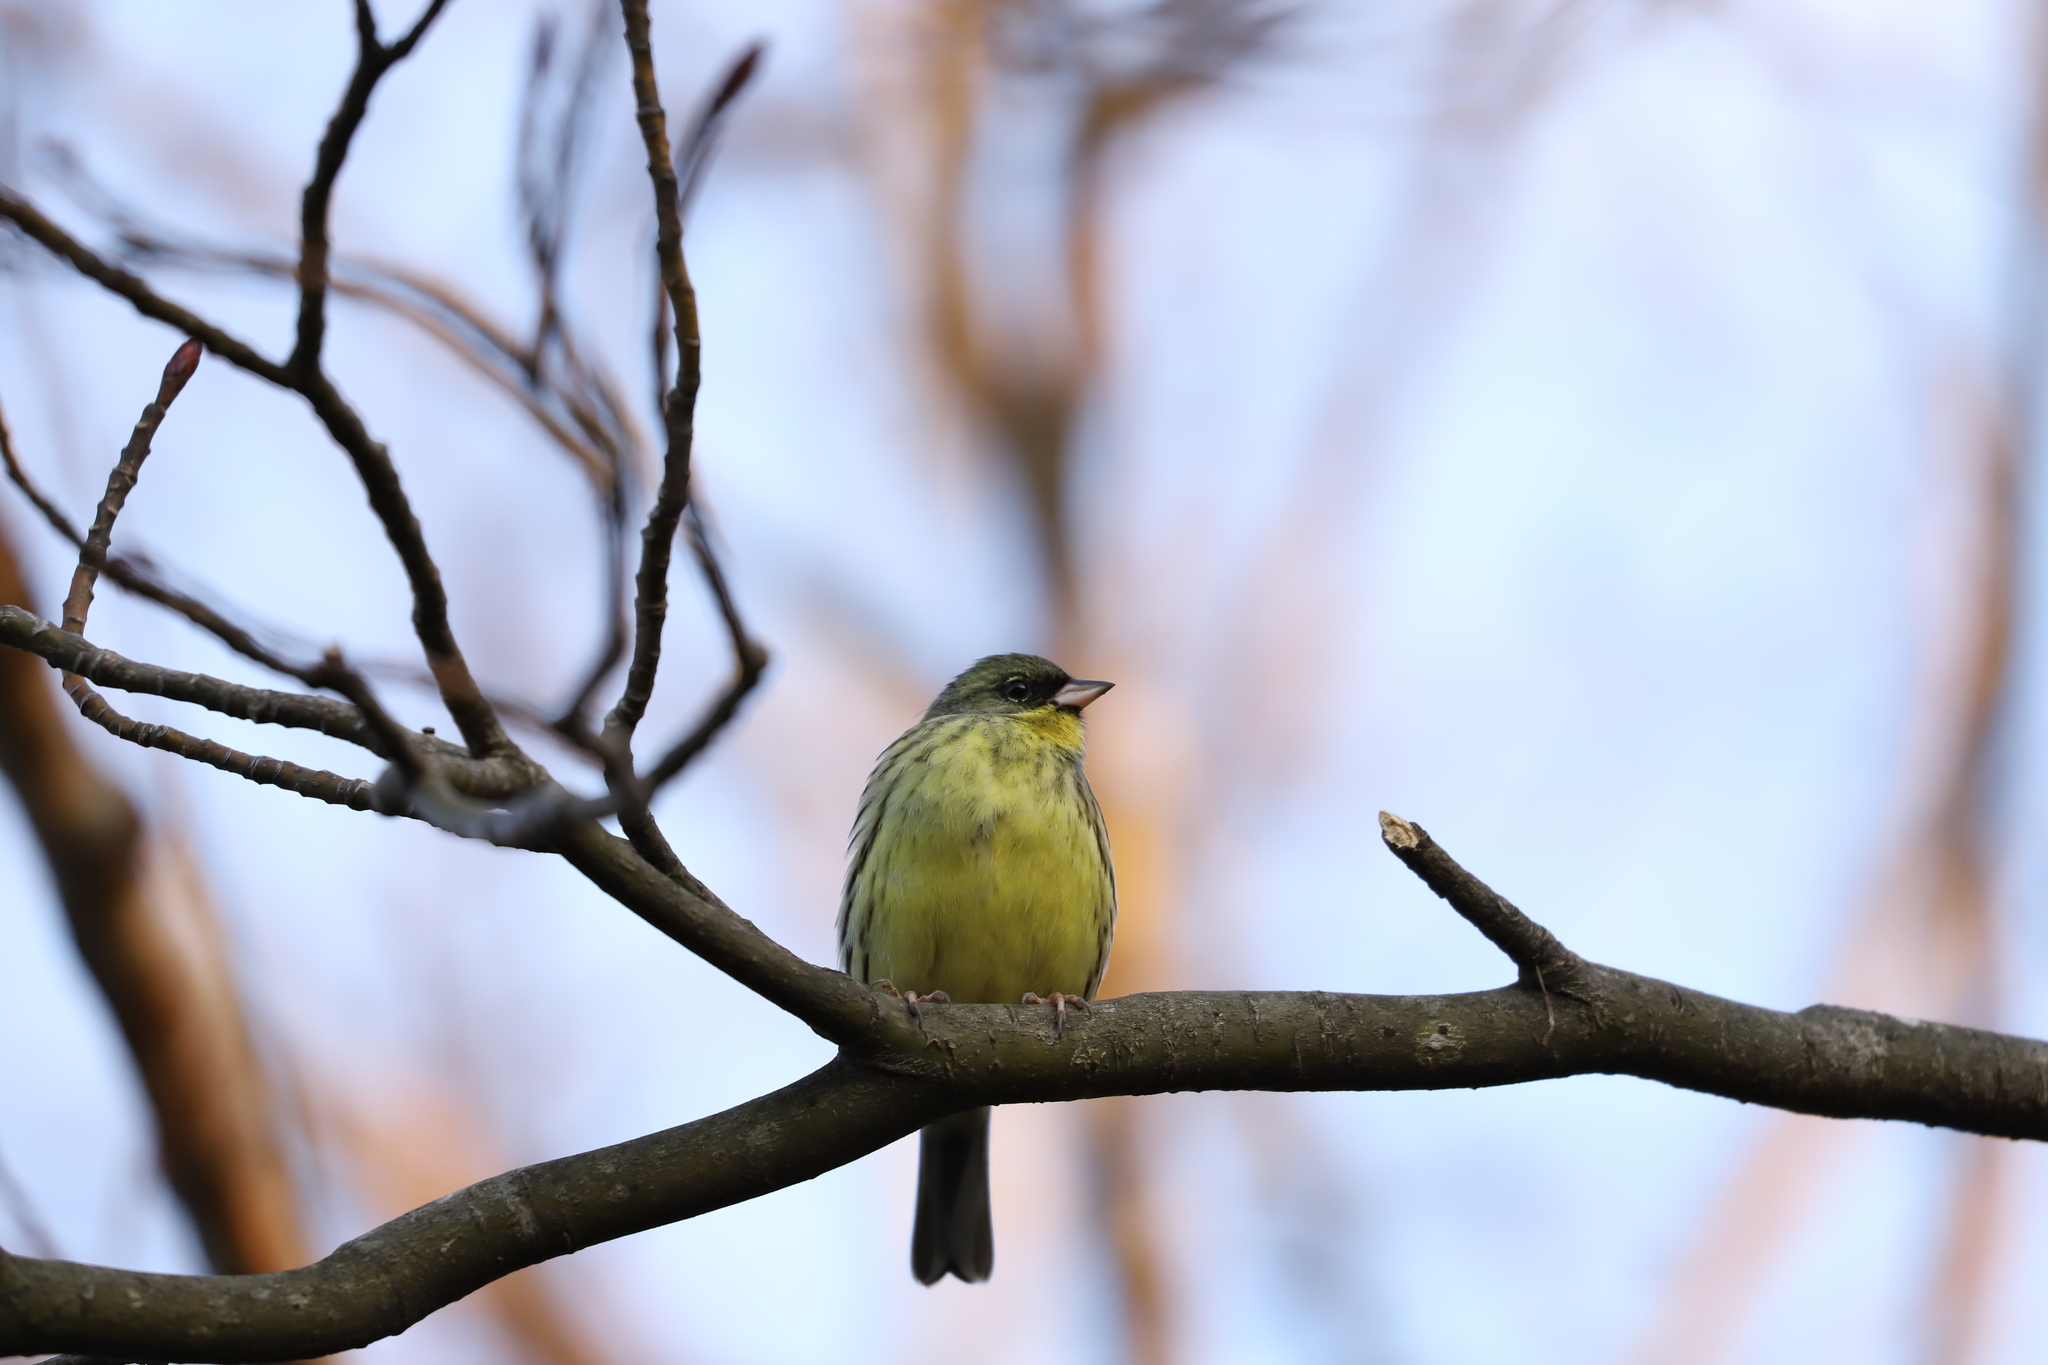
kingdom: Animalia
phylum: Chordata
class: Aves
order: Passeriformes
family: Emberizidae
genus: Emberiza
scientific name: Emberiza personata
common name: Masked bunting
